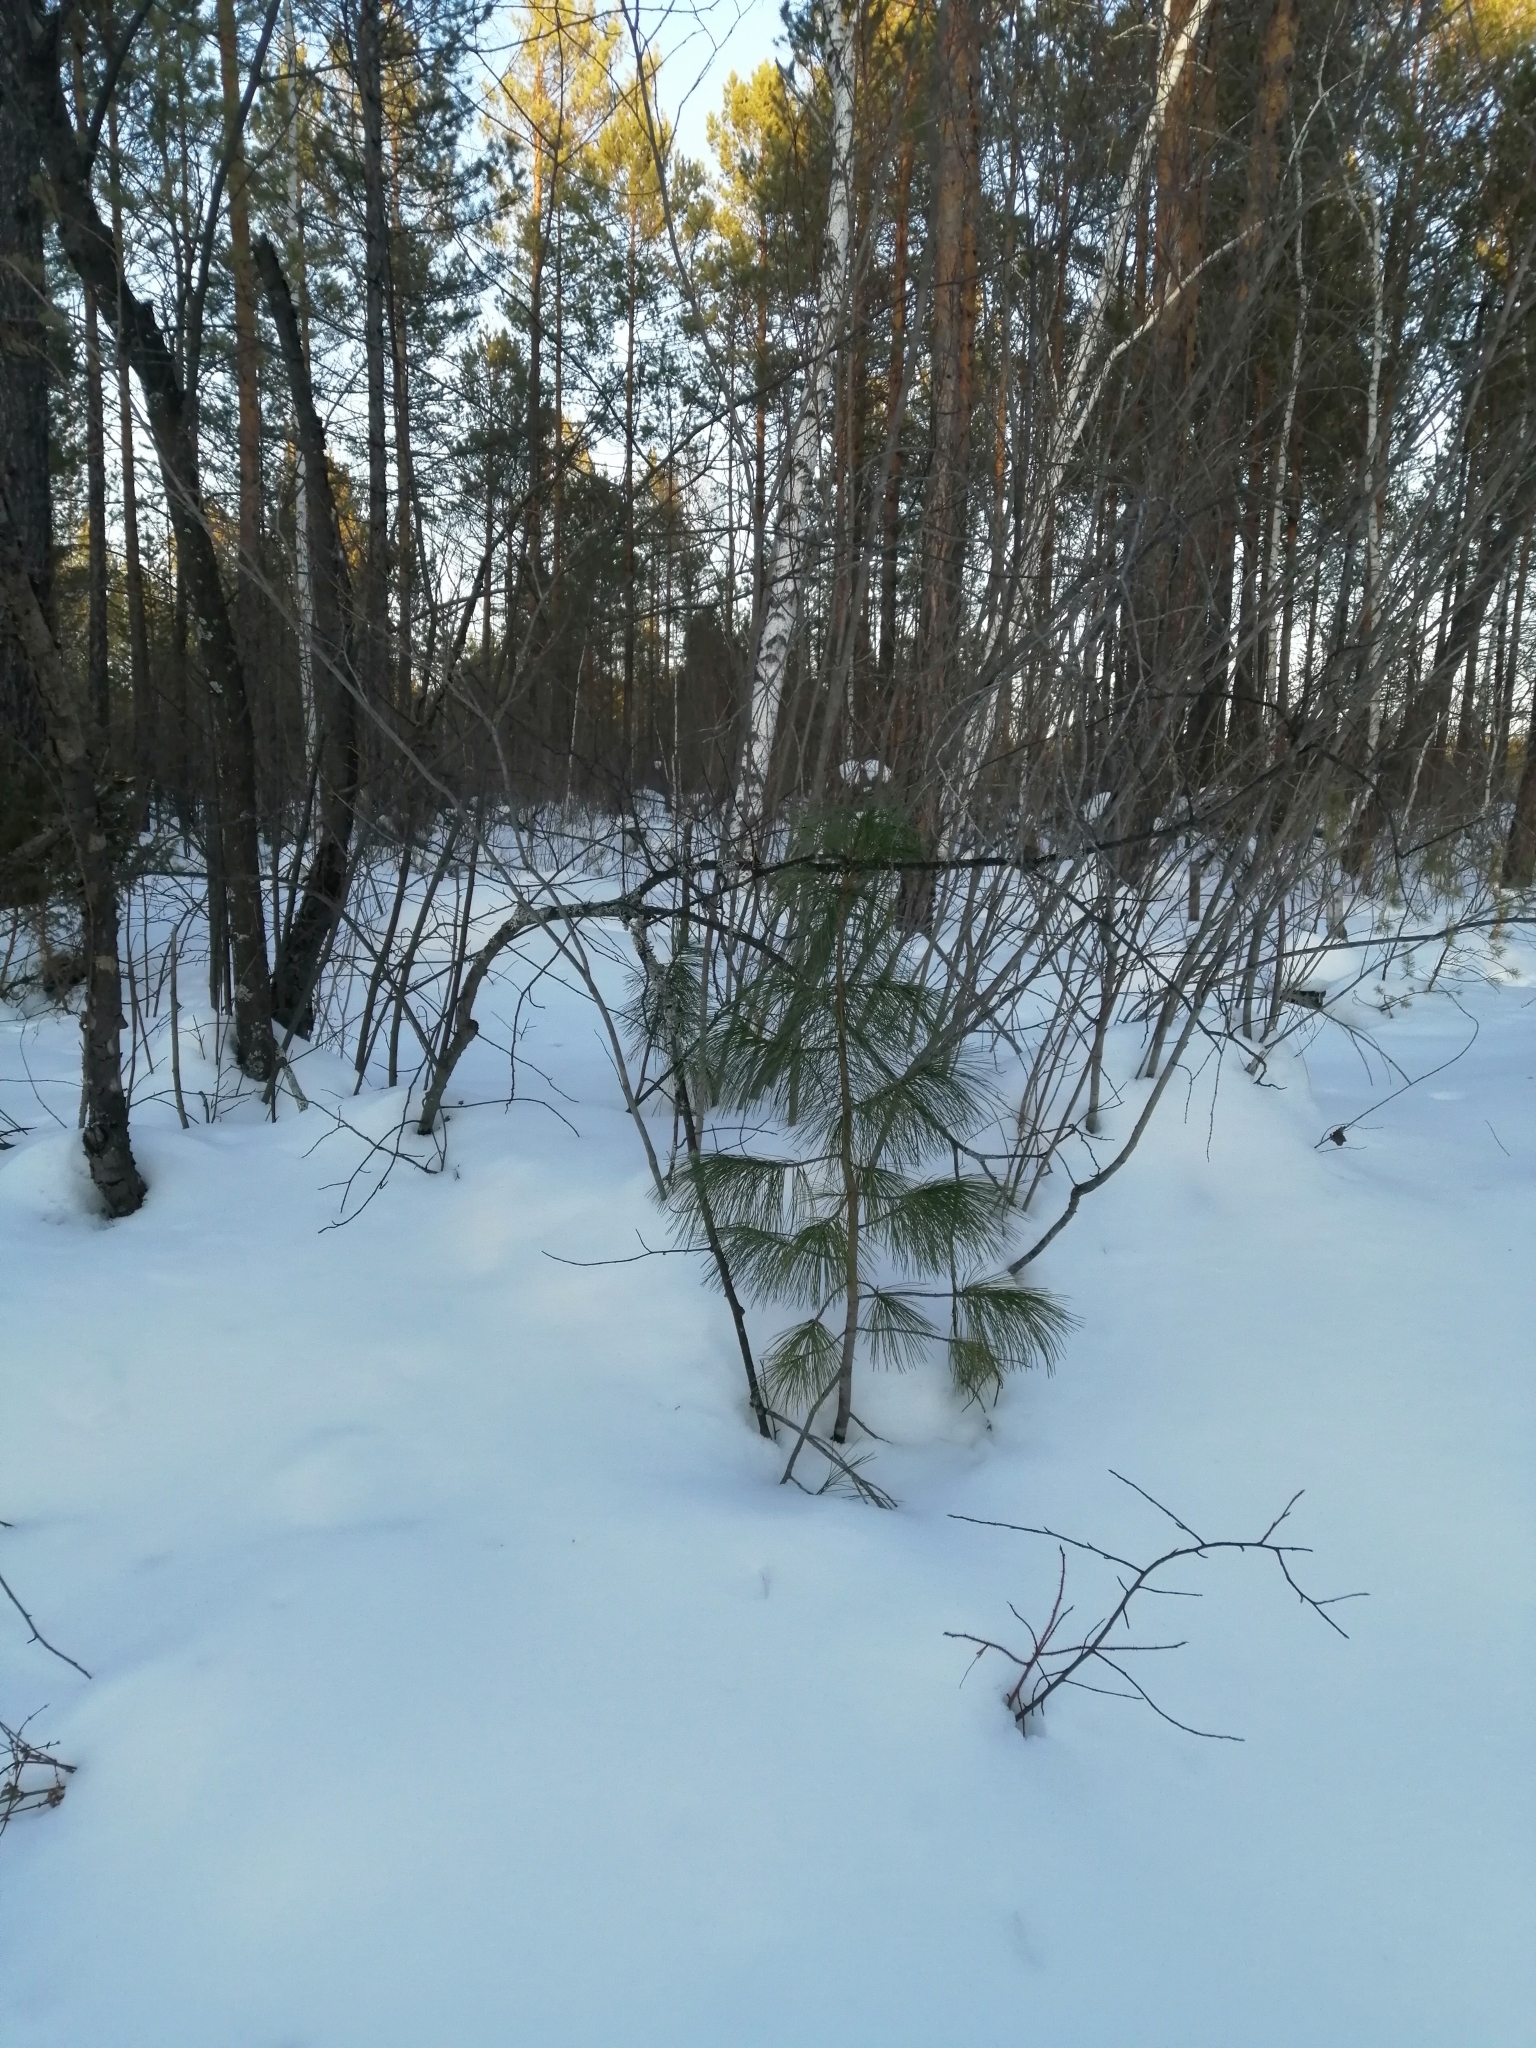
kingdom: Plantae
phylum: Tracheophyta
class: Pinopsida
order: Pinales
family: Pinaceae
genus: Pinus
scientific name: Pinus sibirica
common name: Siberian pine
